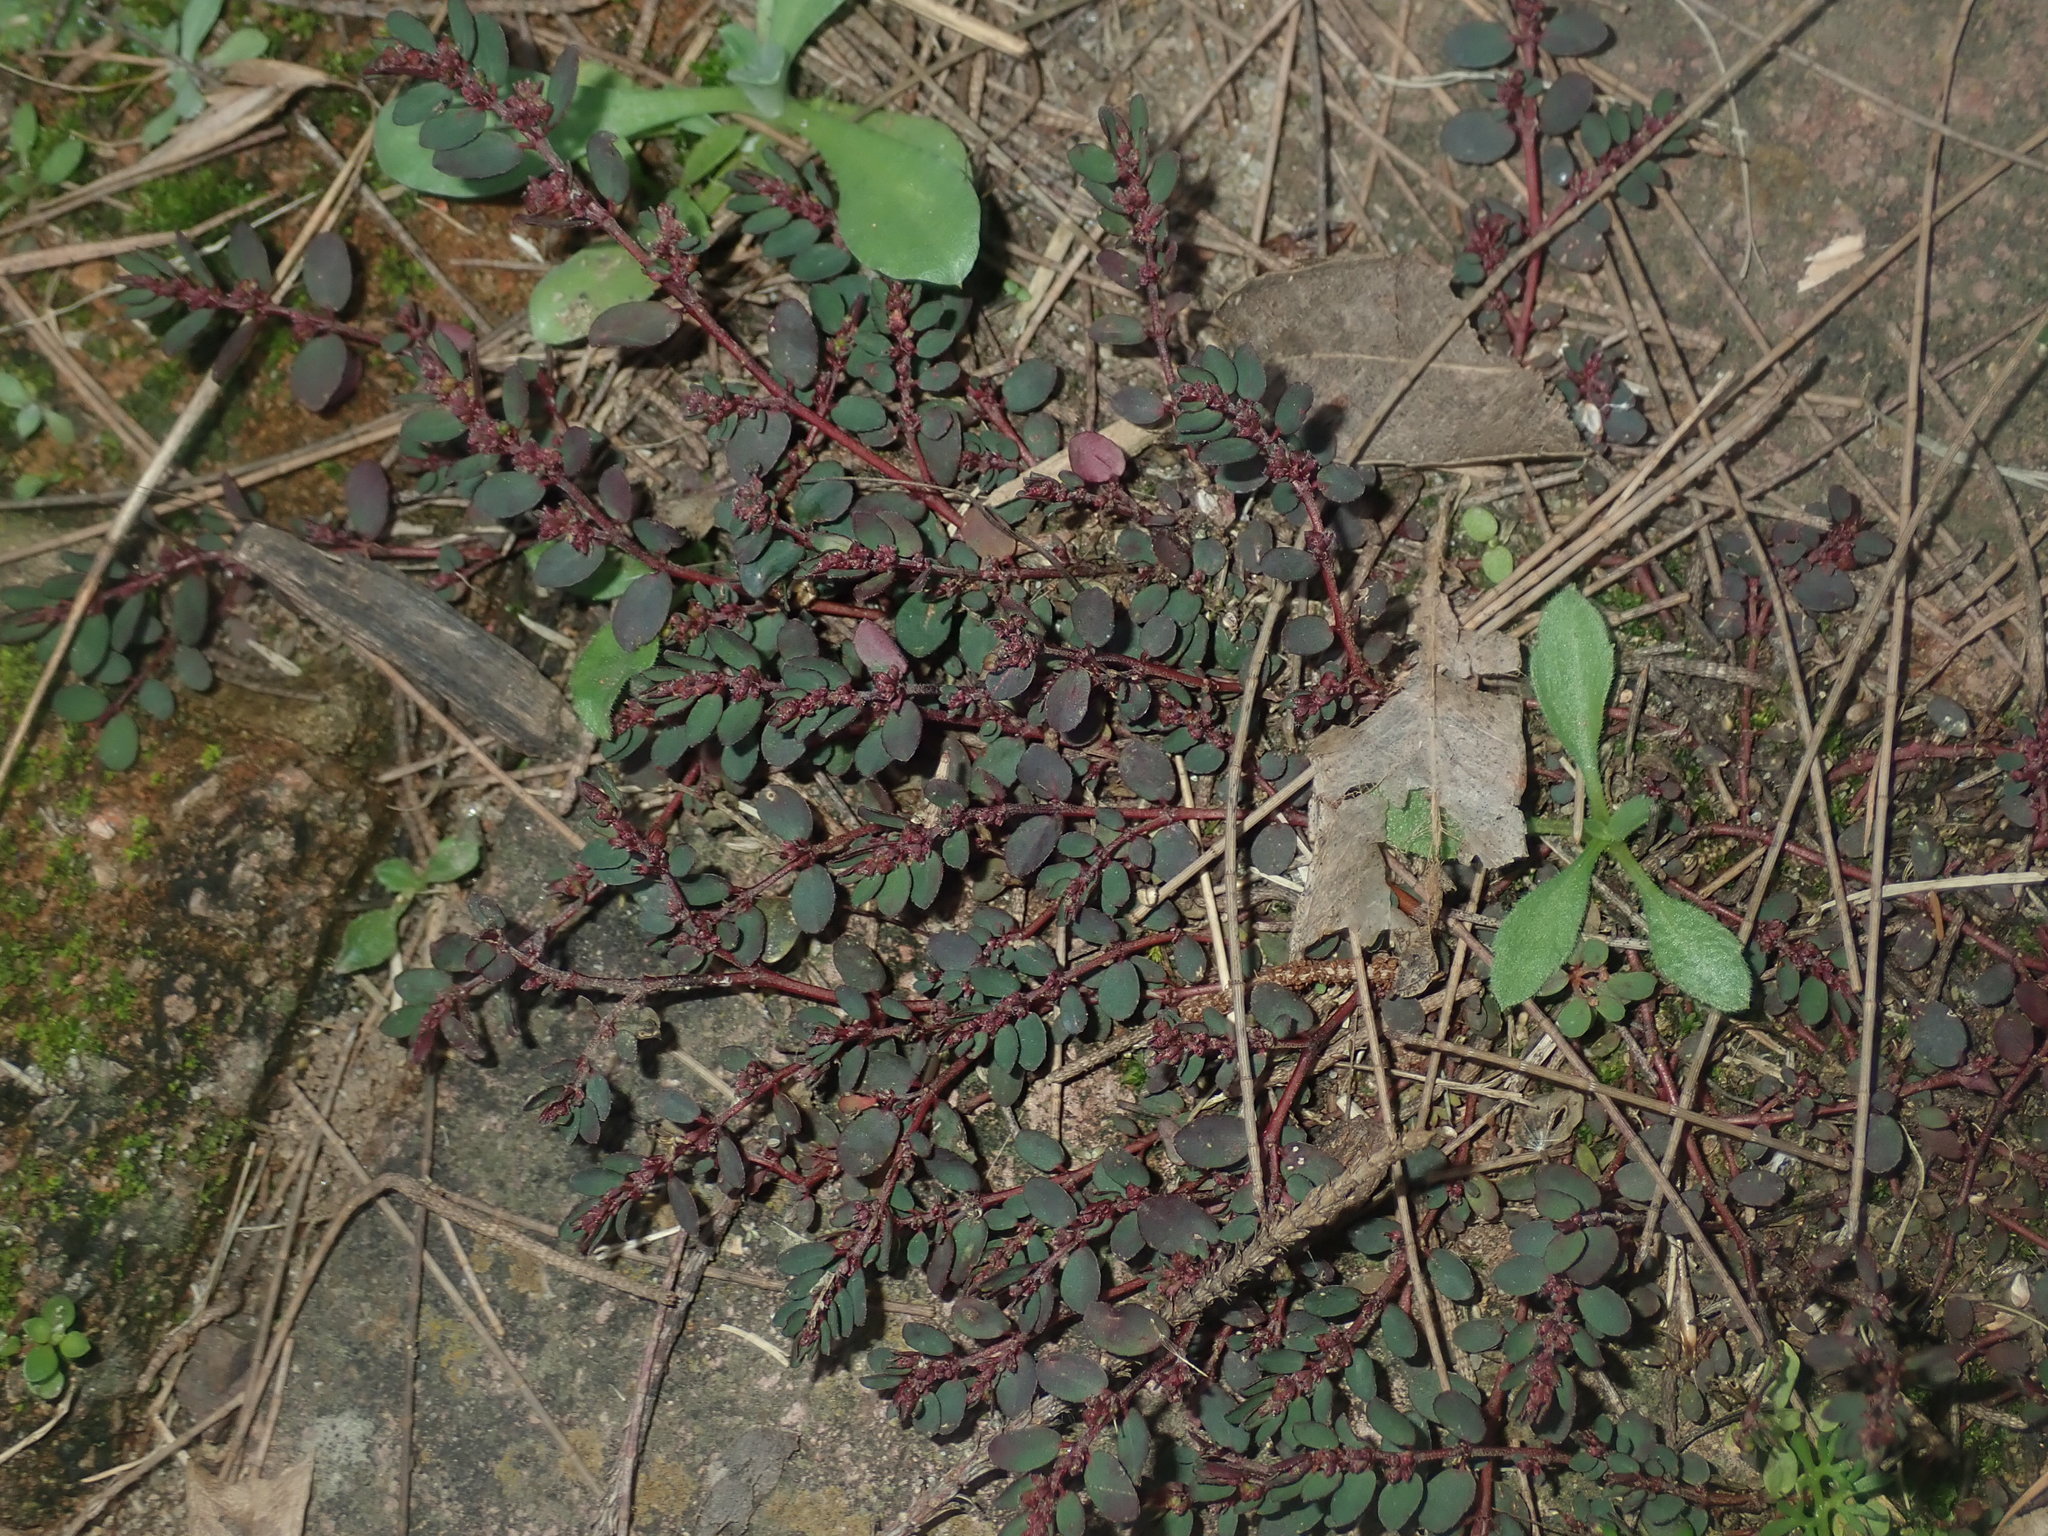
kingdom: Plantae
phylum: Tracheophyta
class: Magnoliopsida
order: Malpighiales
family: Euphorbiaceae
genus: Euphorbia
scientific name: Euphorbia prostrata
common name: Prostrate sandmat
